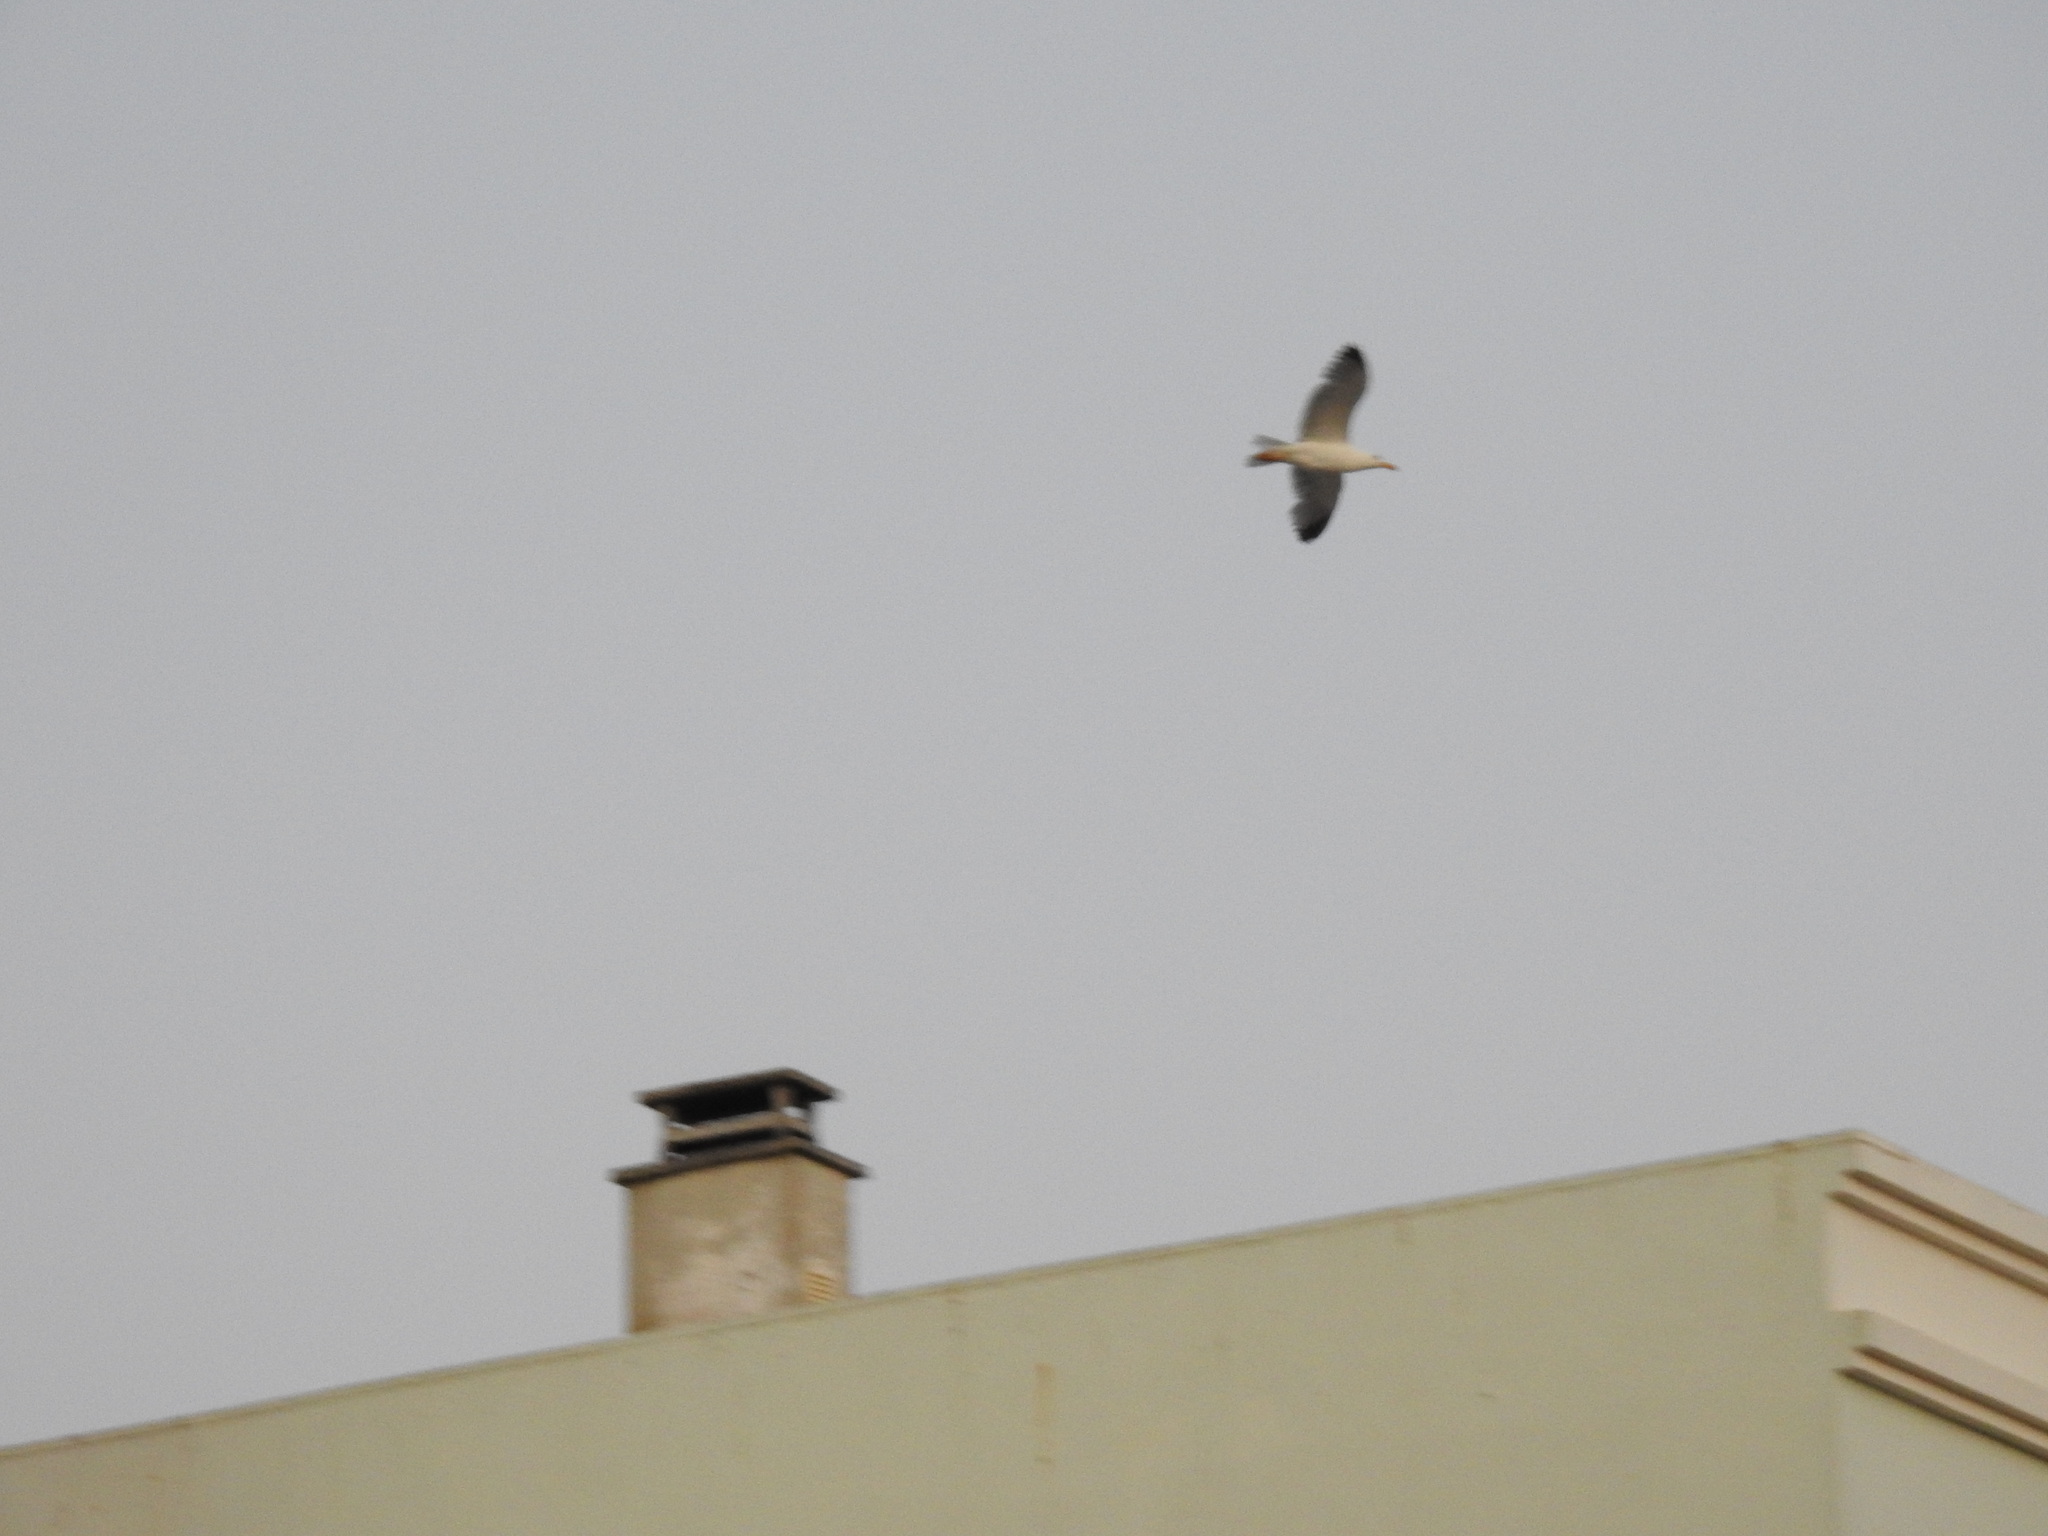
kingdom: Animalia
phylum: Chordata
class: Aves
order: Charadriiformes
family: Laridae
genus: Larus
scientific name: Larus
